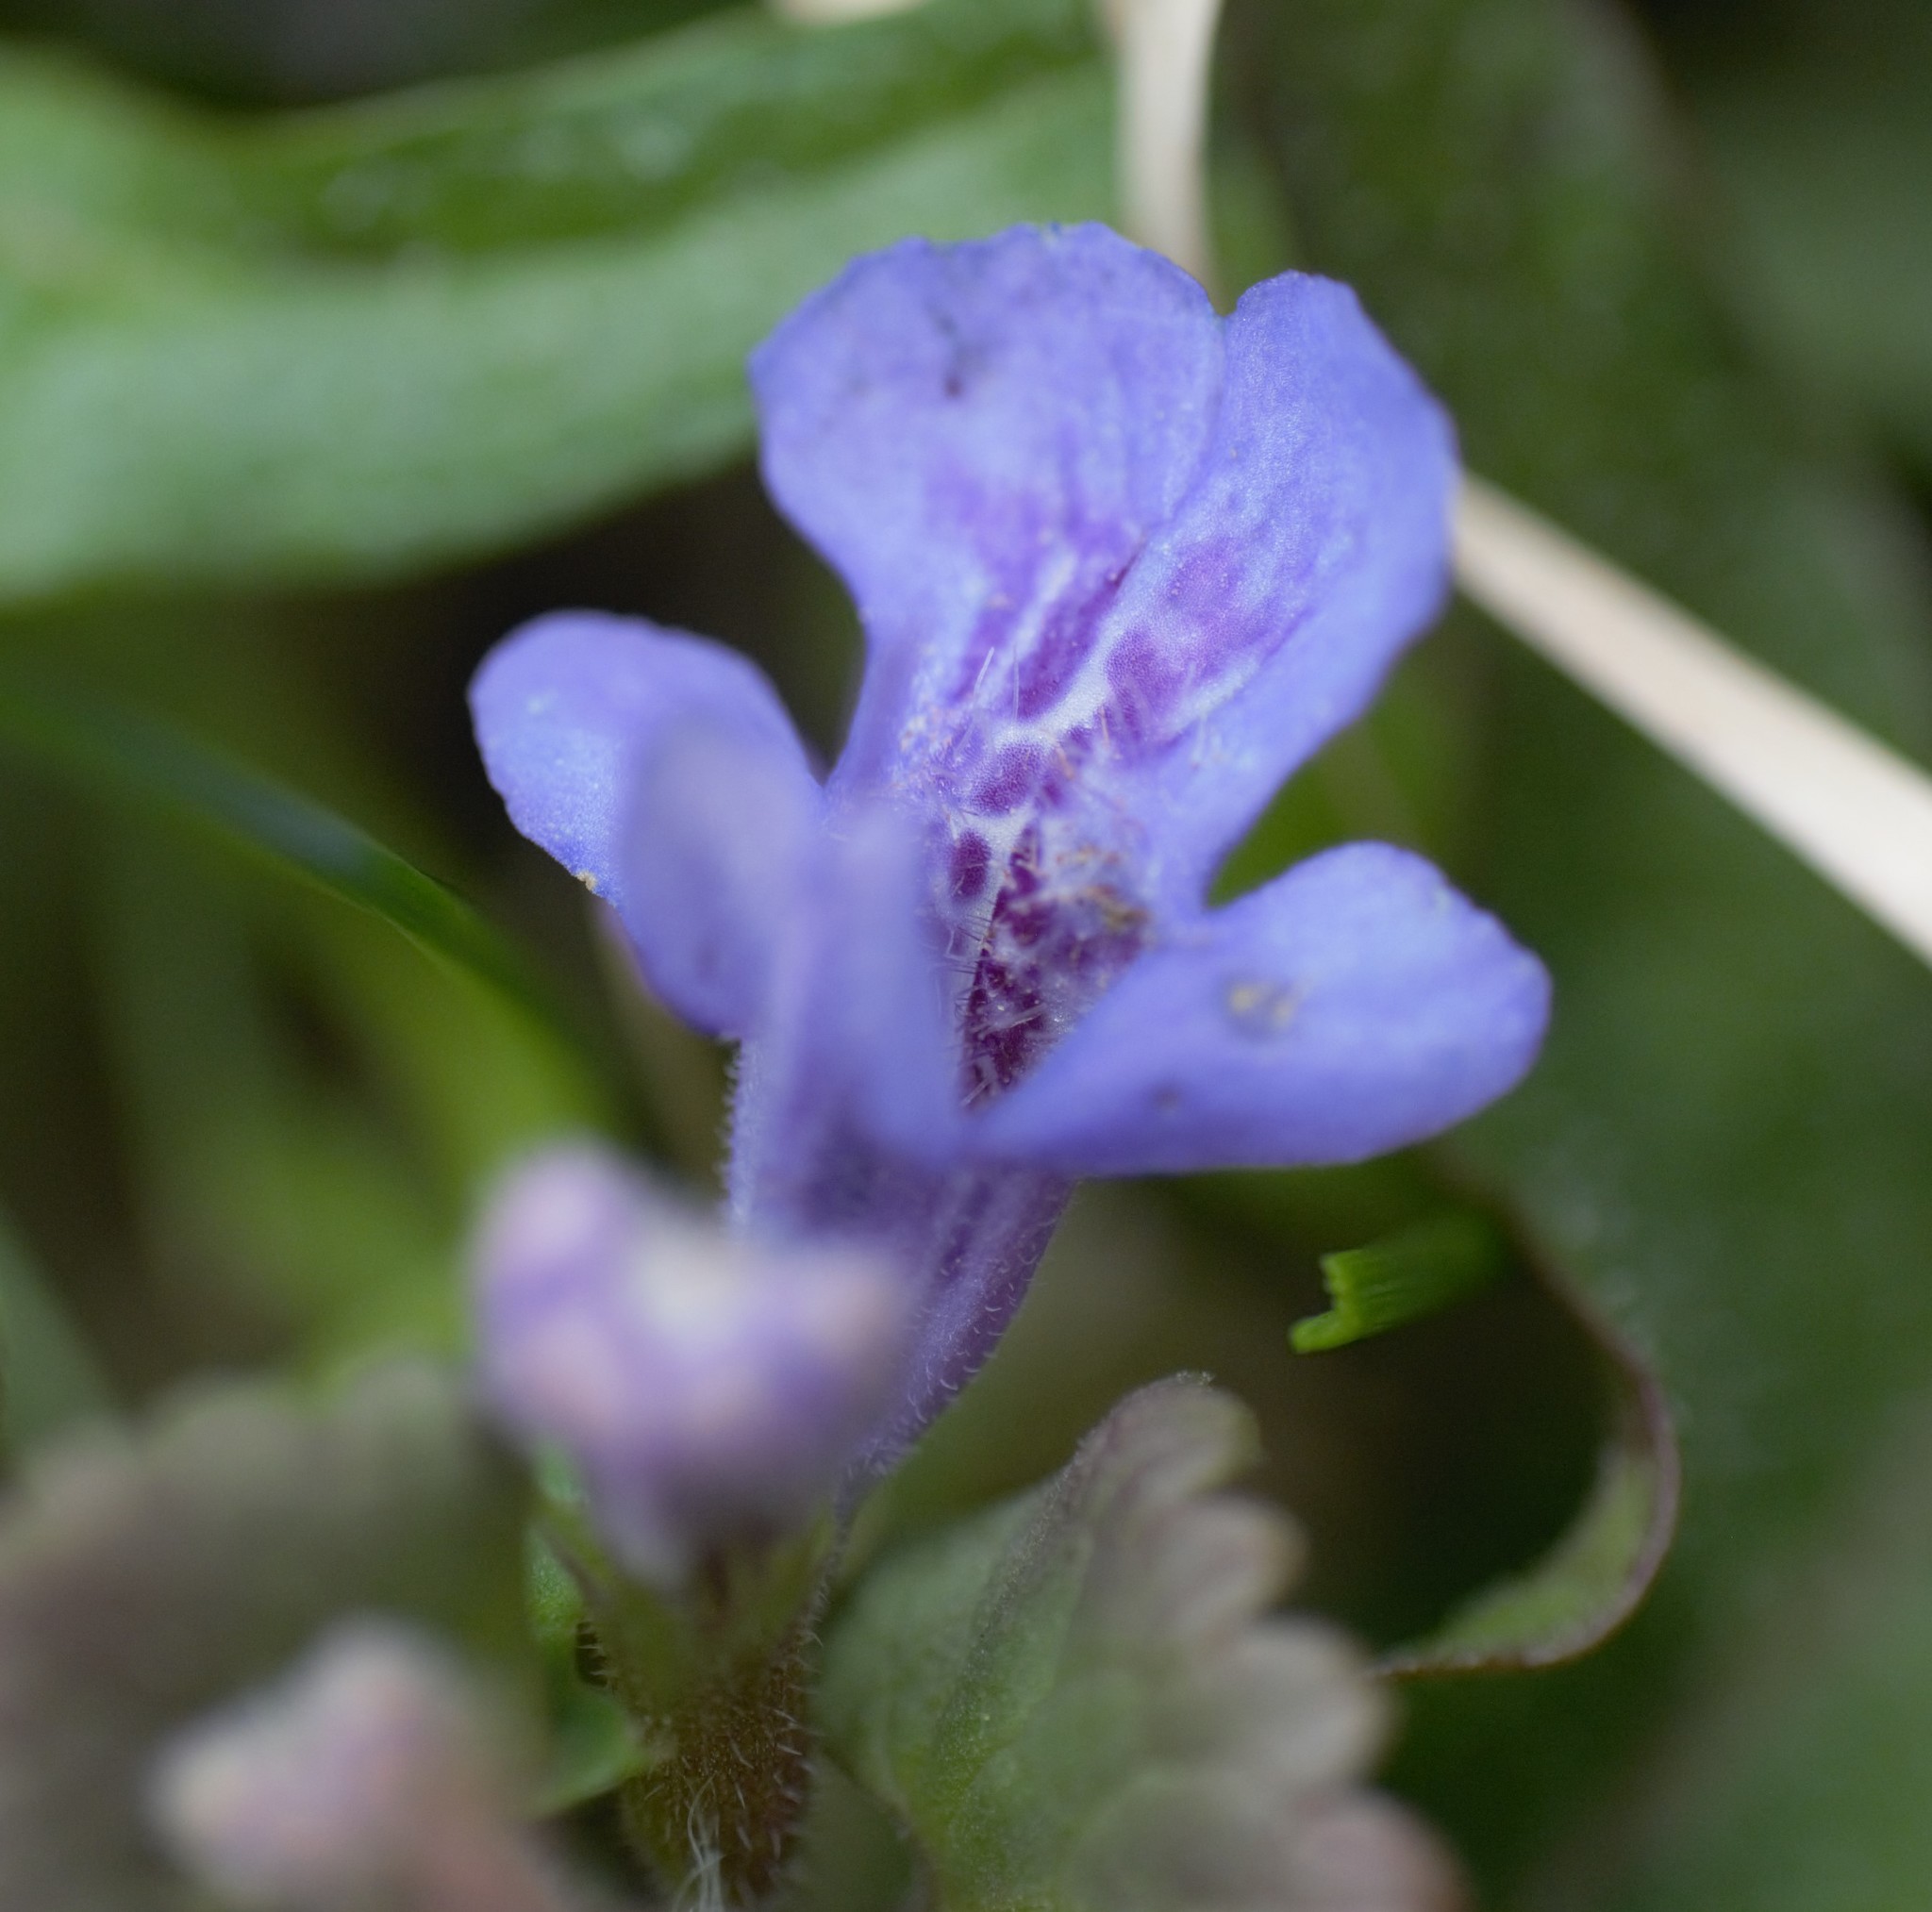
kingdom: Plantae
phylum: Tracheophyta
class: Magnoliopsida
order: Lamiales
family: Lamiaceae
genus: Glechoma
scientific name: Glechoma hederacea
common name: Ground ivy
